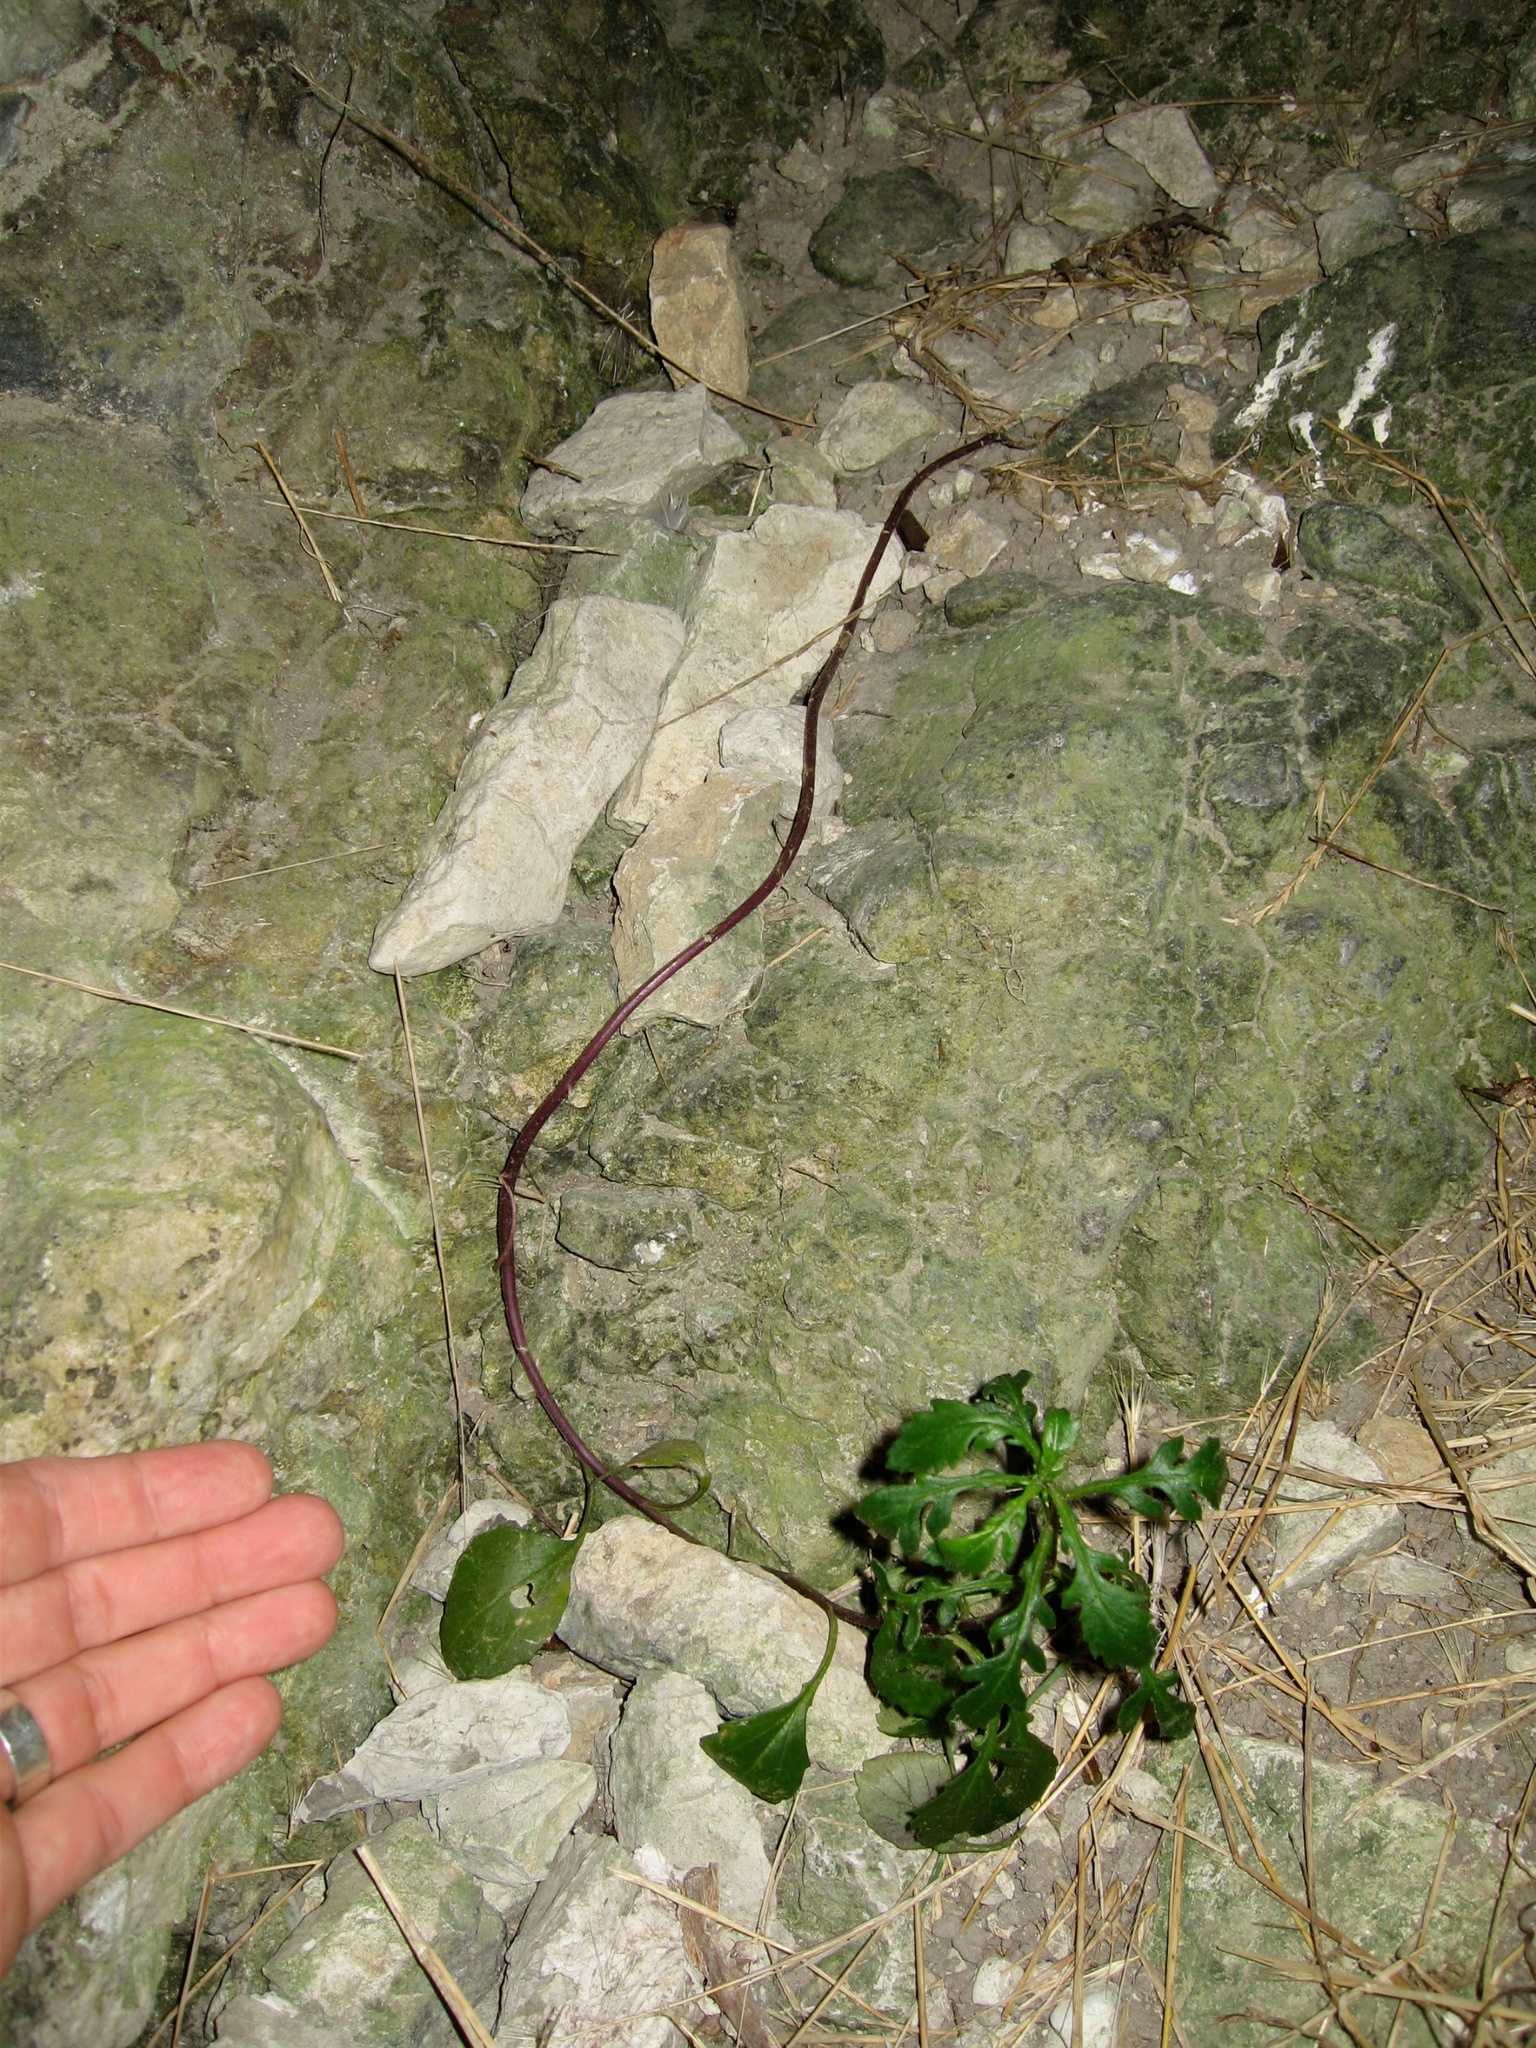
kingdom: Plantae
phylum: Tracheophyta
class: Magnoliopsida
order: Asterales
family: Asteraceae
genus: Senecio
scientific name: Senecio lautus
